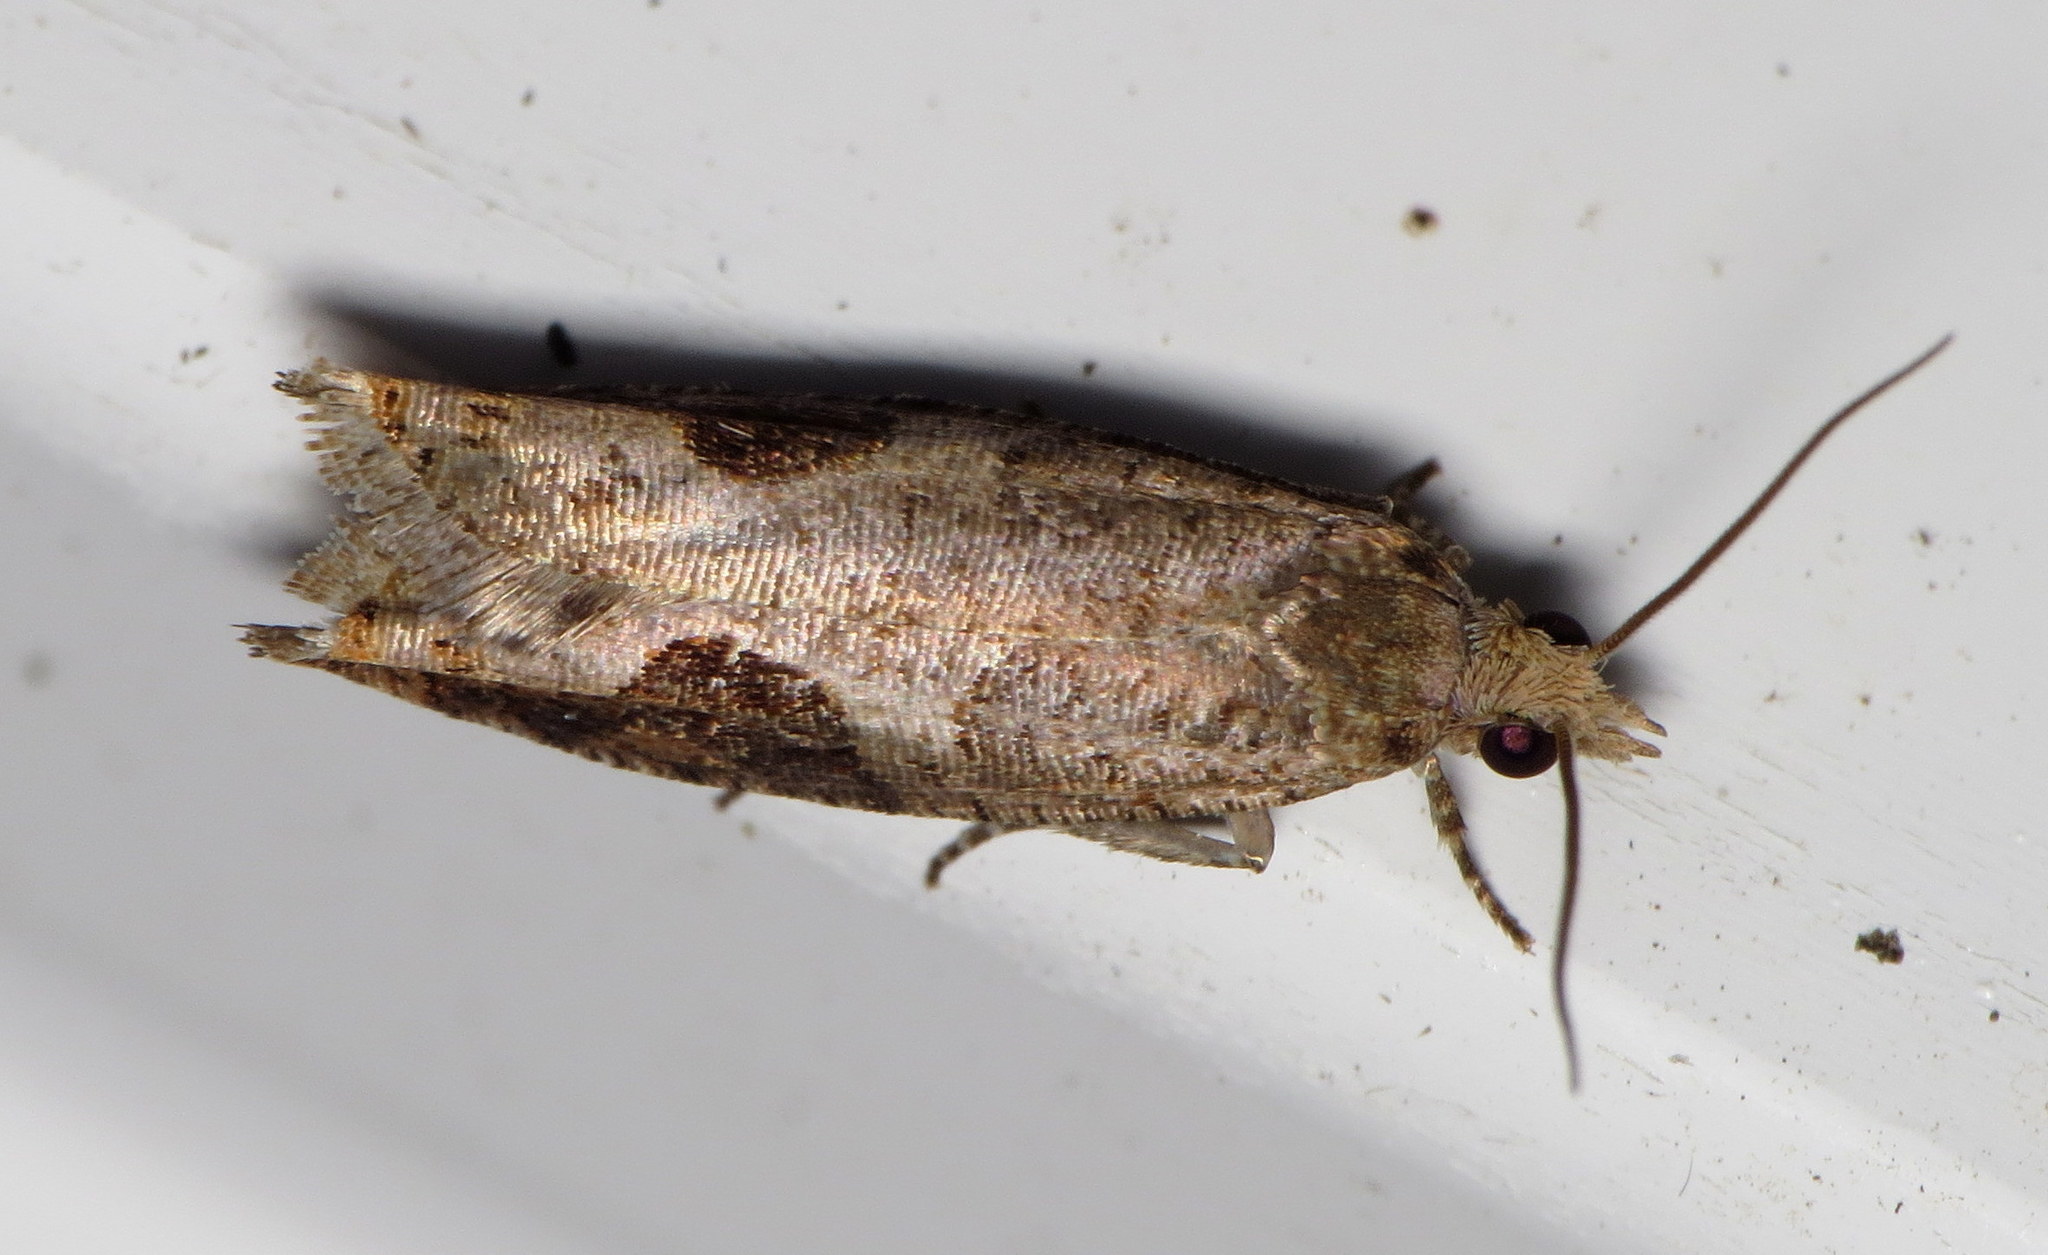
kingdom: Animalia
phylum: Arthropoda
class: Insecta
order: Lepidoptera
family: Tortricidae
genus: Pseudexentera
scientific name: Pseudexentera virginiana
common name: Virginia pseudexentera moth
